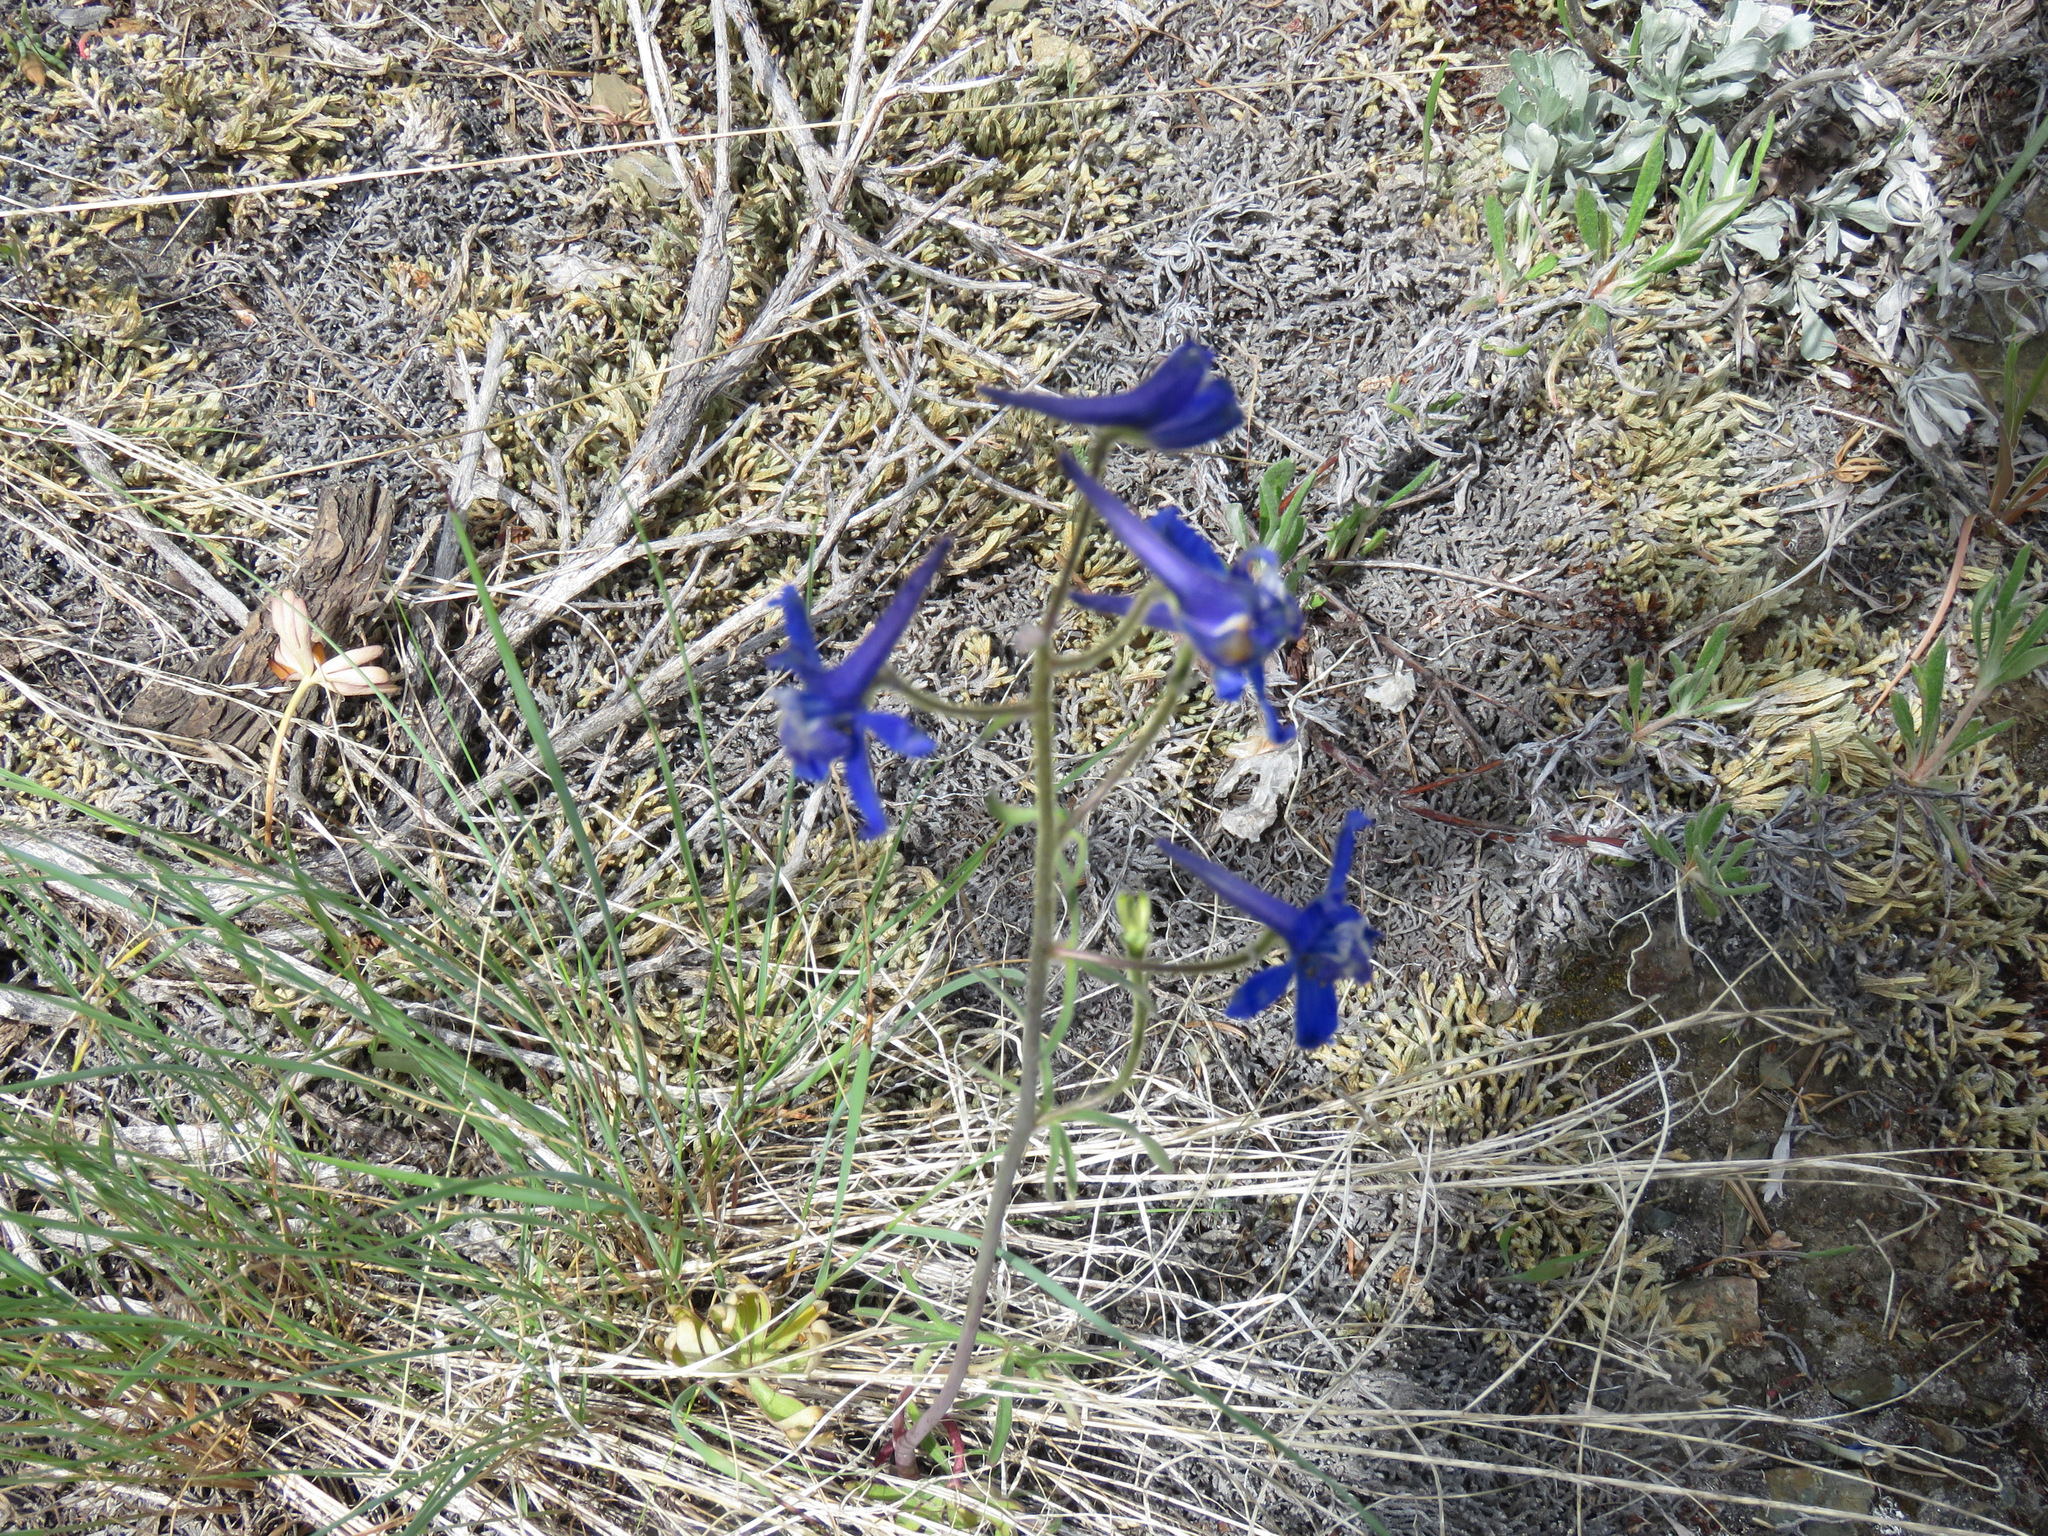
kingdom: Plantae
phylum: Tracheophyta
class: Magnoliopsida
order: Ranunculales
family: Ranunculaceae
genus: Delphinium
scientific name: Delphinium nuttallianum
